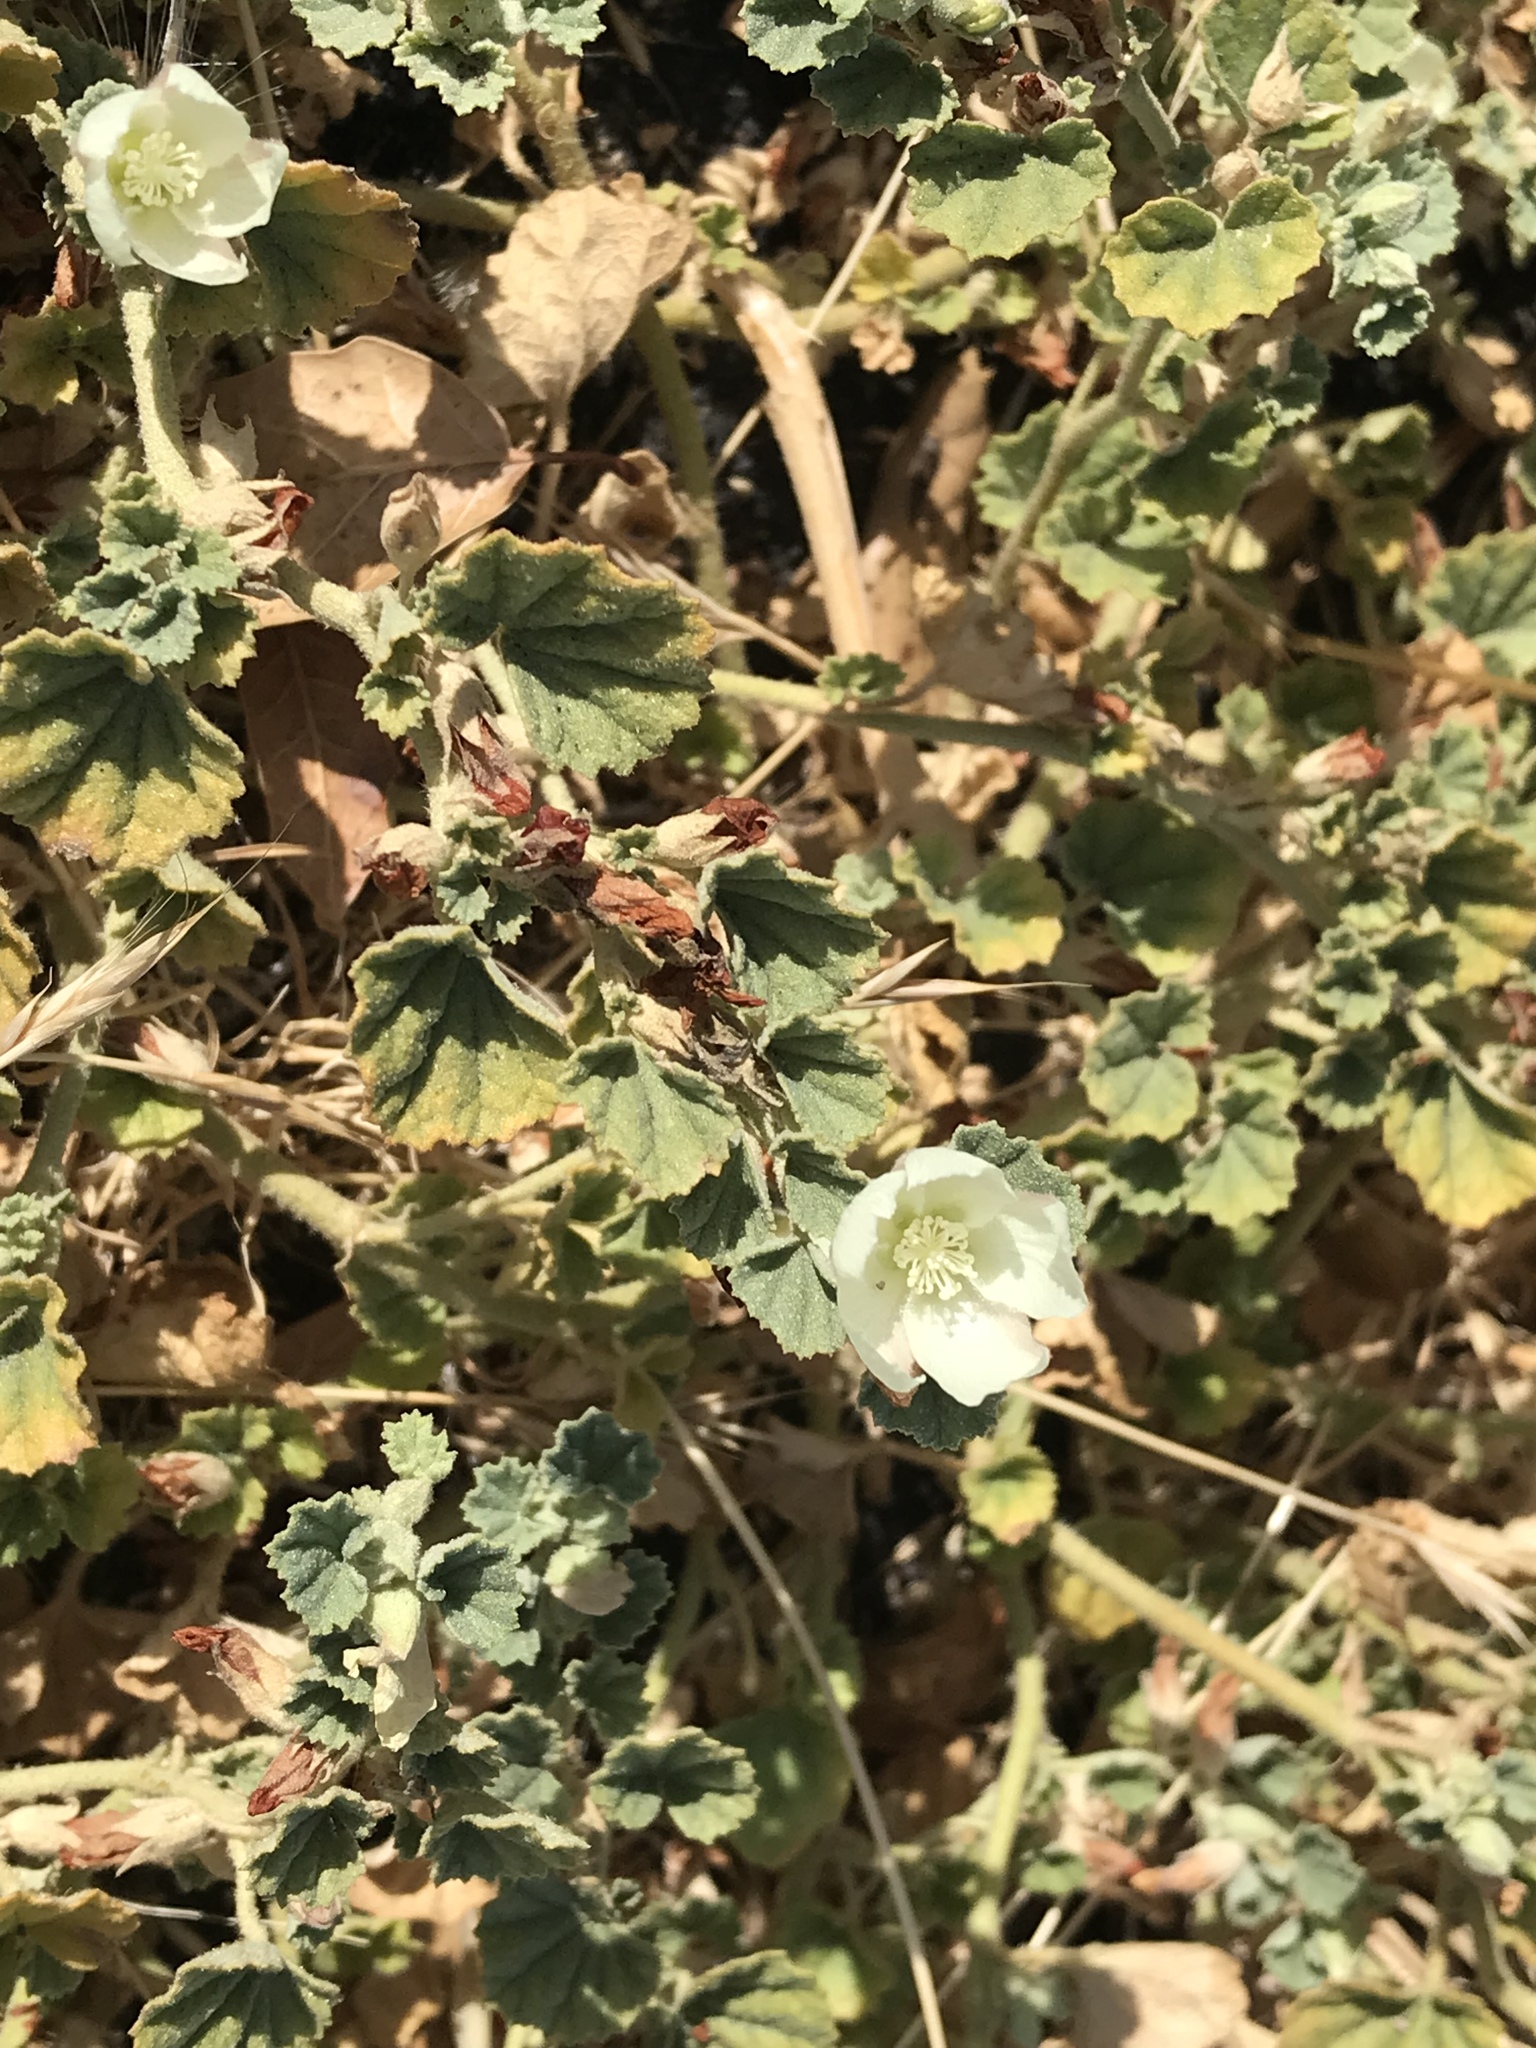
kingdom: Plantae
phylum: Tracheophyta
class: Magnoliopsida
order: Malvales
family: Malvaceae
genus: Malvella
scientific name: Malvella leprosa
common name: Alkali-mallow
